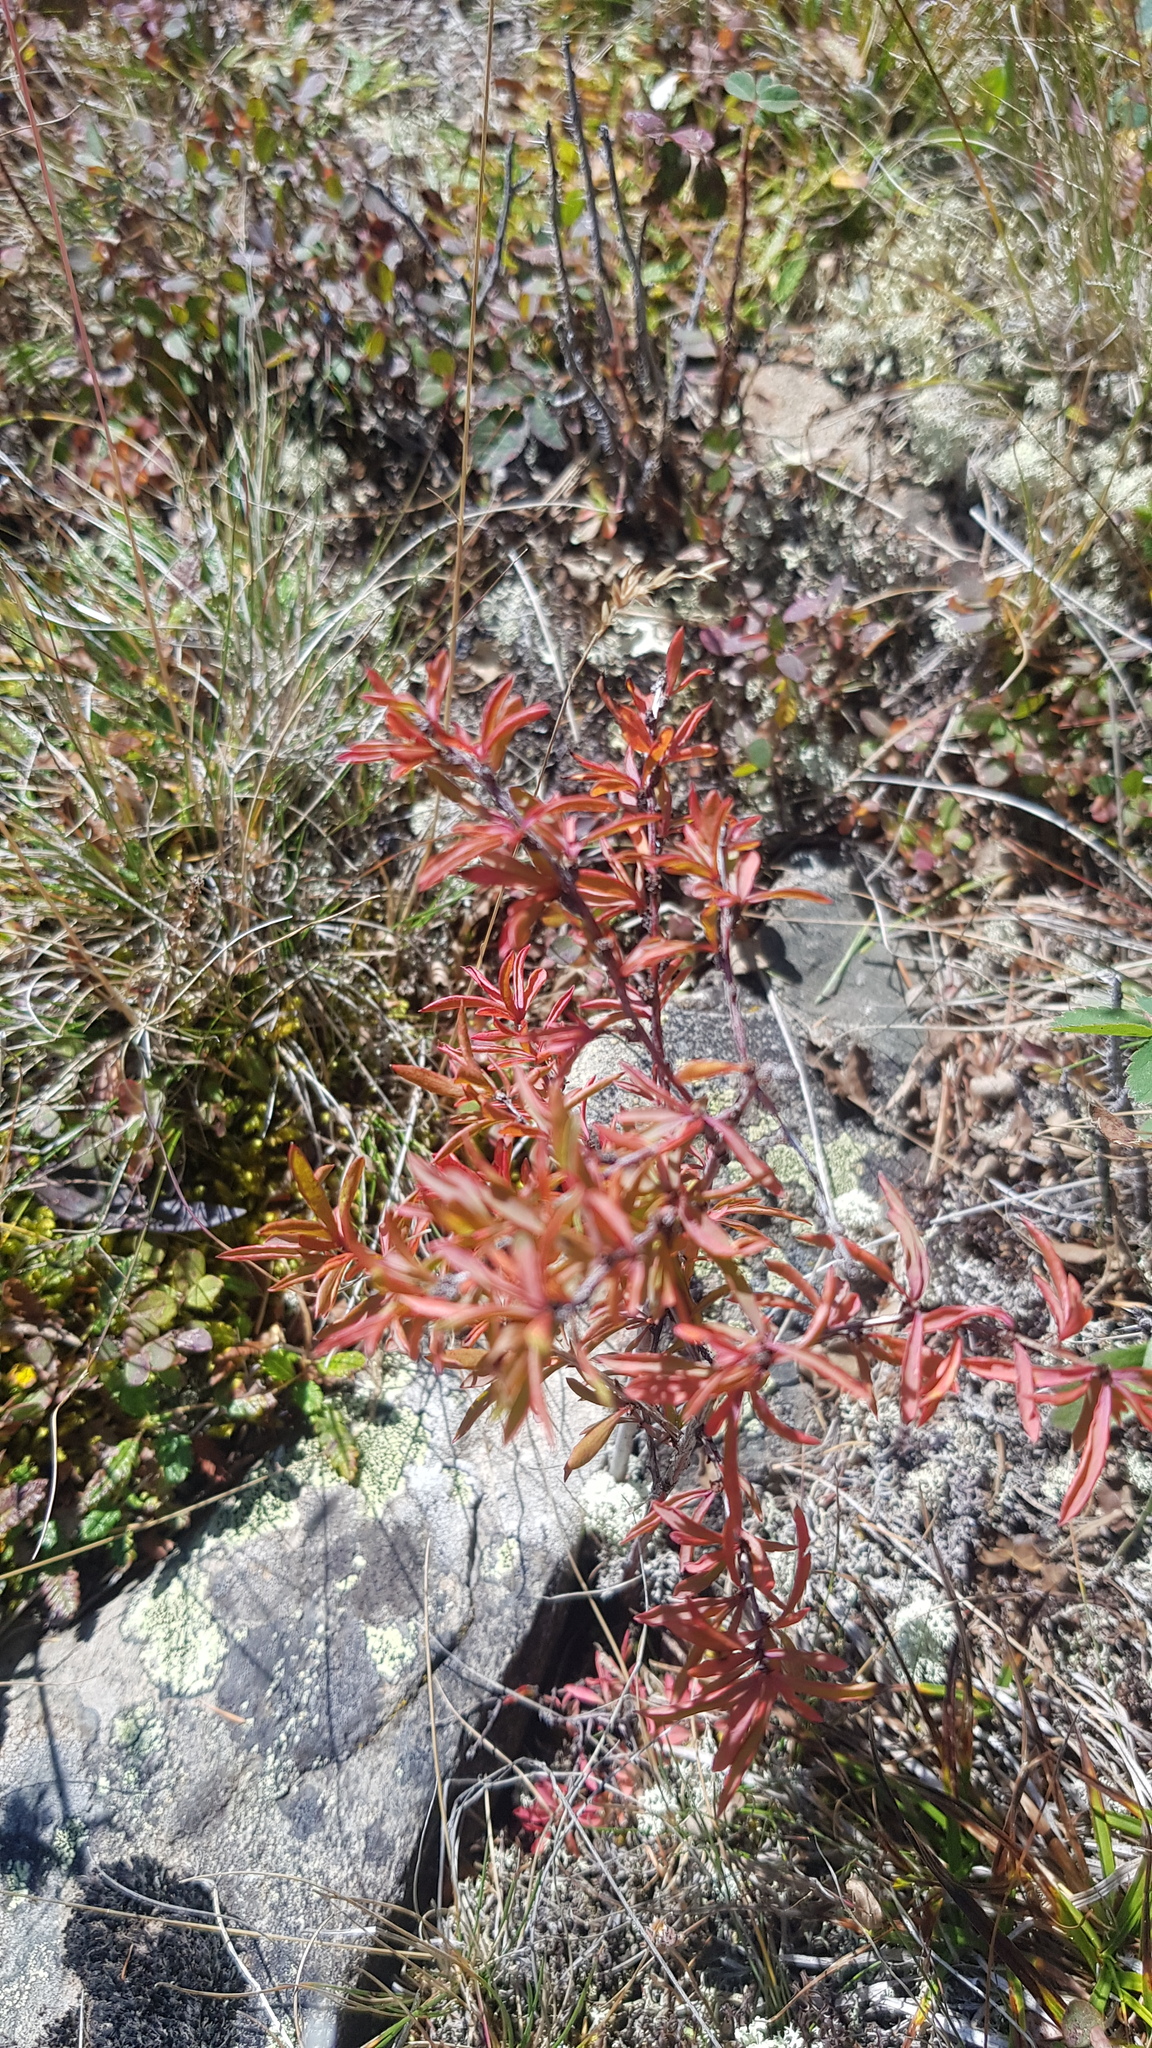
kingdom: Plantae
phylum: Tracheophyta
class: Magnoliopsida
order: Ranunculales
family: Berberidaceae
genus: Berberis
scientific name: Berberis sibirica
